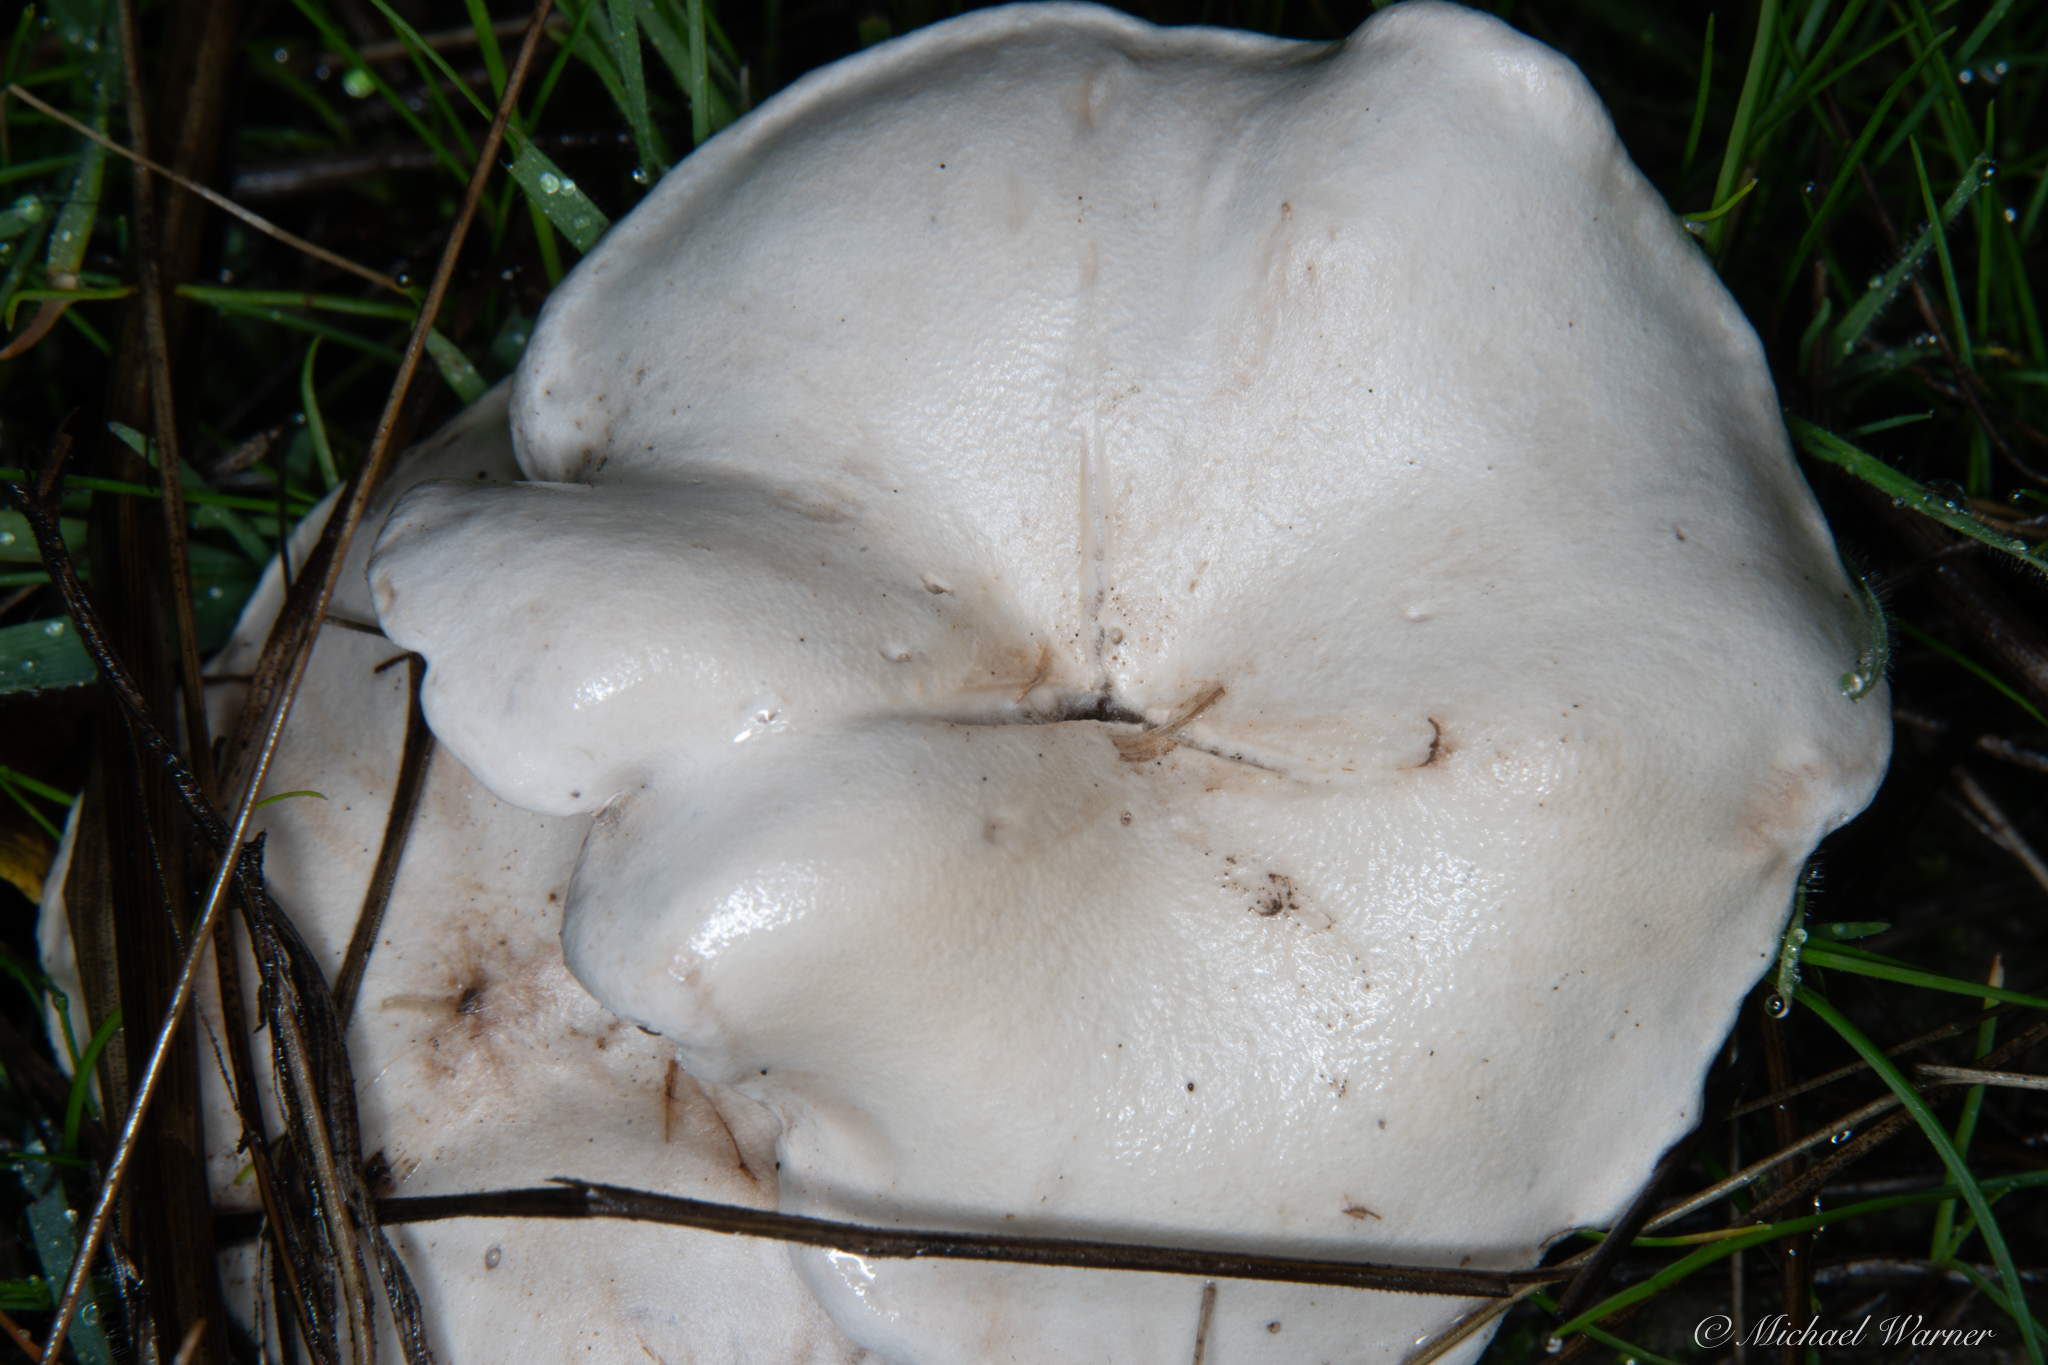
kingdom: Fungi
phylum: Basidiomycota
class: Agaricomycetes
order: Agaricales
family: Tricholomataceae
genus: Collybia
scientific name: Collybia
